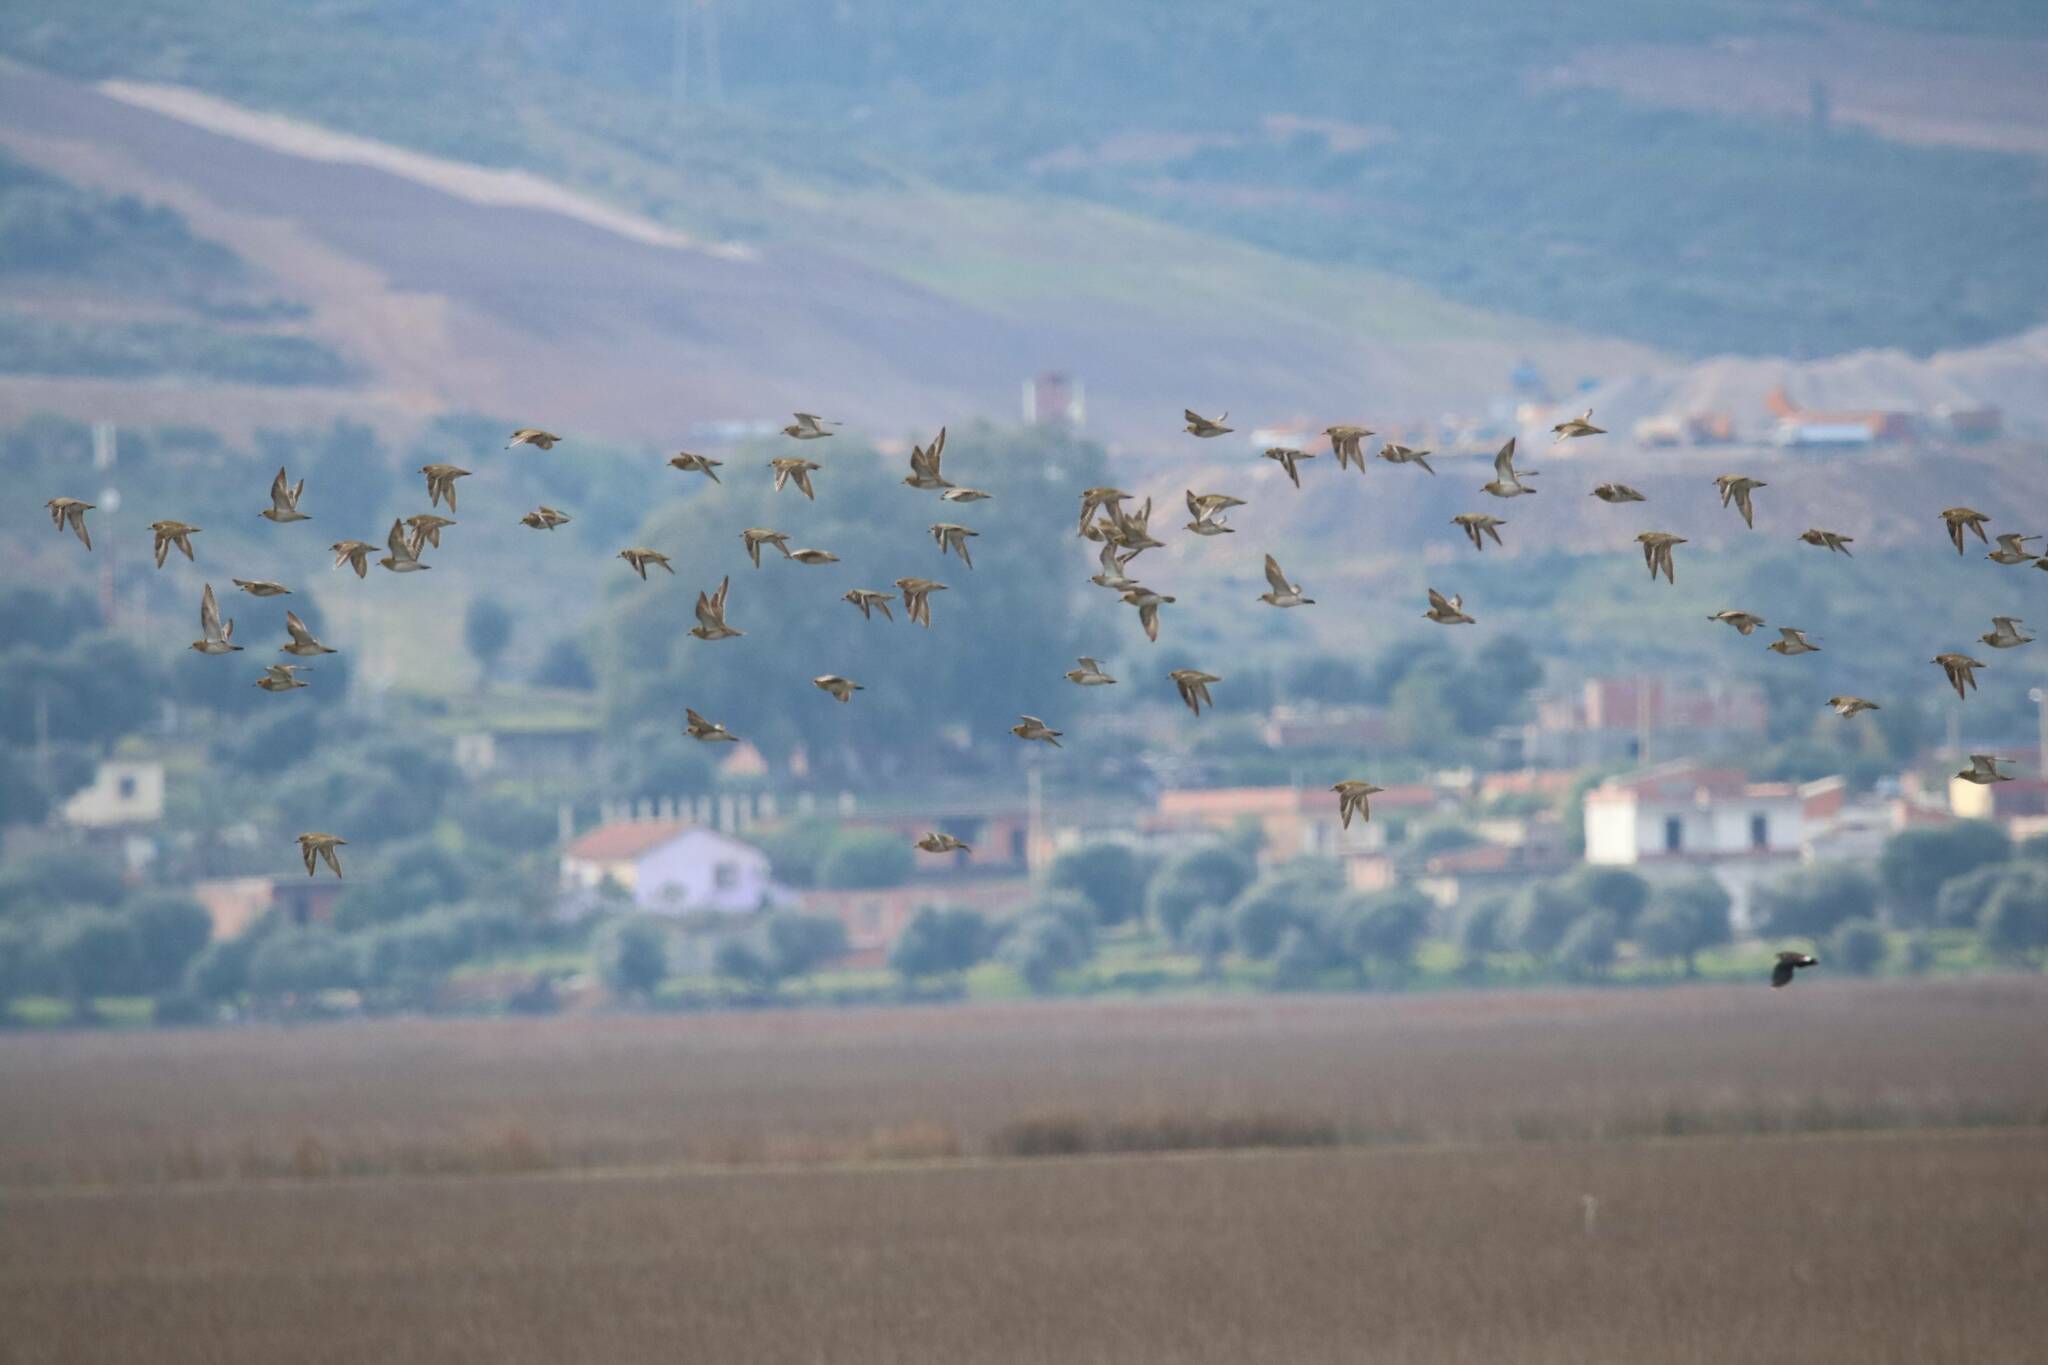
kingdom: Animalia
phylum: Chordata
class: Aves
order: Charadriiformes
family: Charadriidae
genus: Pluvialis
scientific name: Pluvialis apricaria
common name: European golden plover
